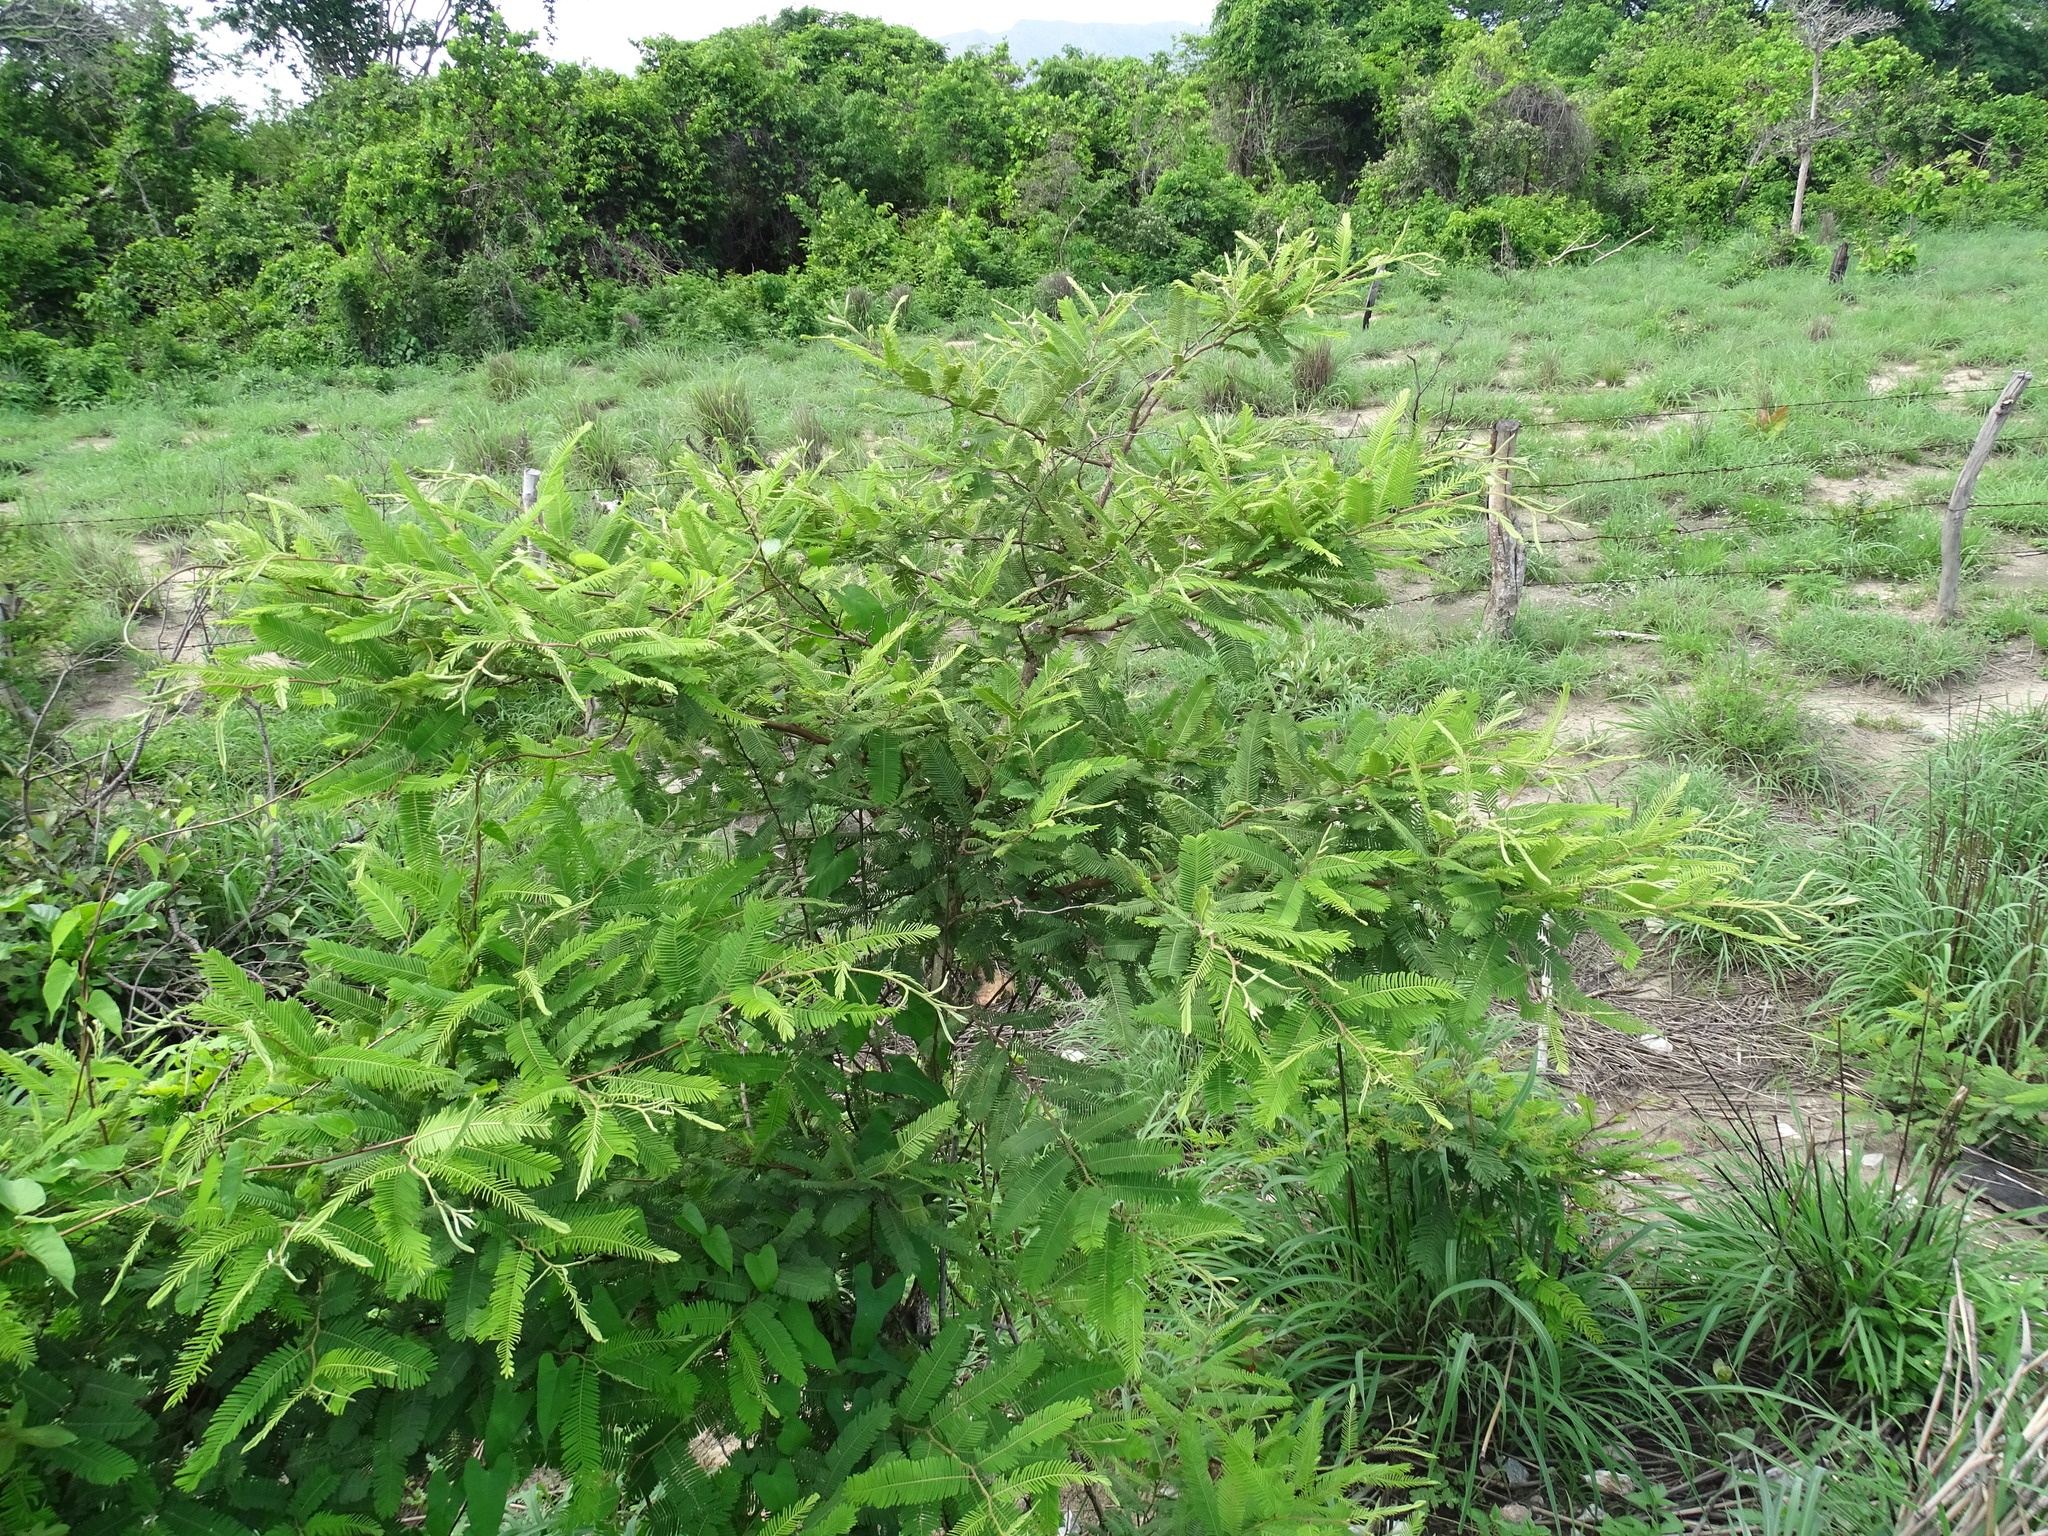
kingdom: Plantae
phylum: Tracheophyta
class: Magnoliopsida
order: Fabales
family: Fabaceae
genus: Vachellia
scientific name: Vachellia pennatula
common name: Fern-leaf acacia
